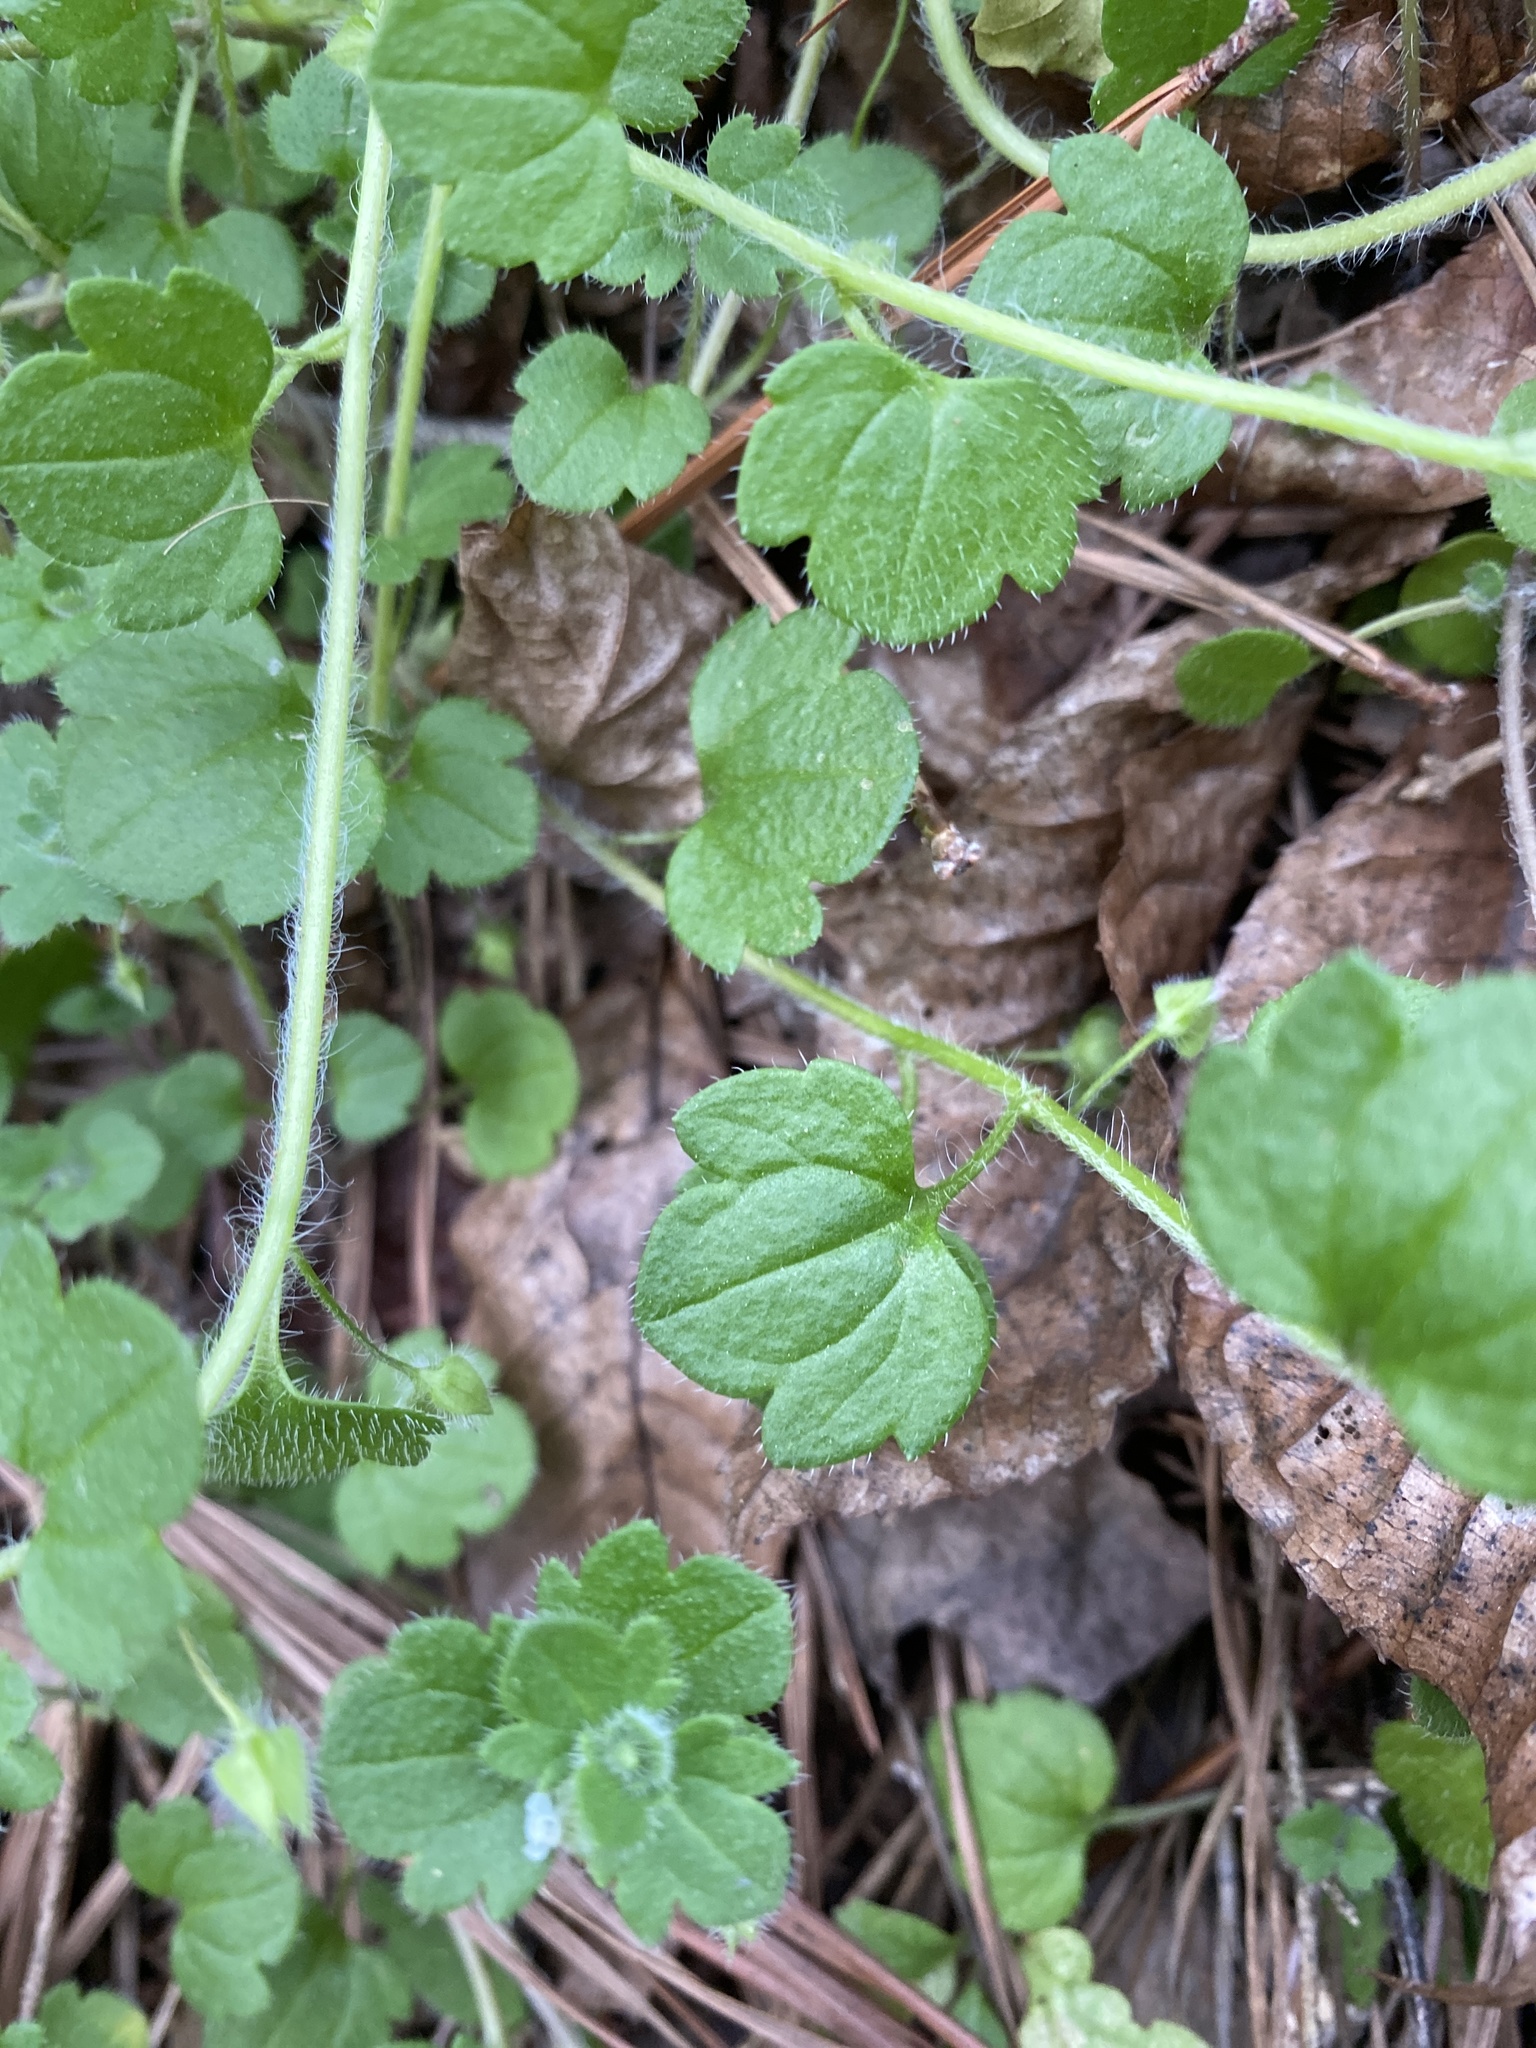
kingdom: Plantae
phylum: Tracheophyta
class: Magnoliopsida
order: Lamiales
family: Plantaginaceae
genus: Veronica
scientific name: Veronica sublobata
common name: False ivy-leaved speedwell
